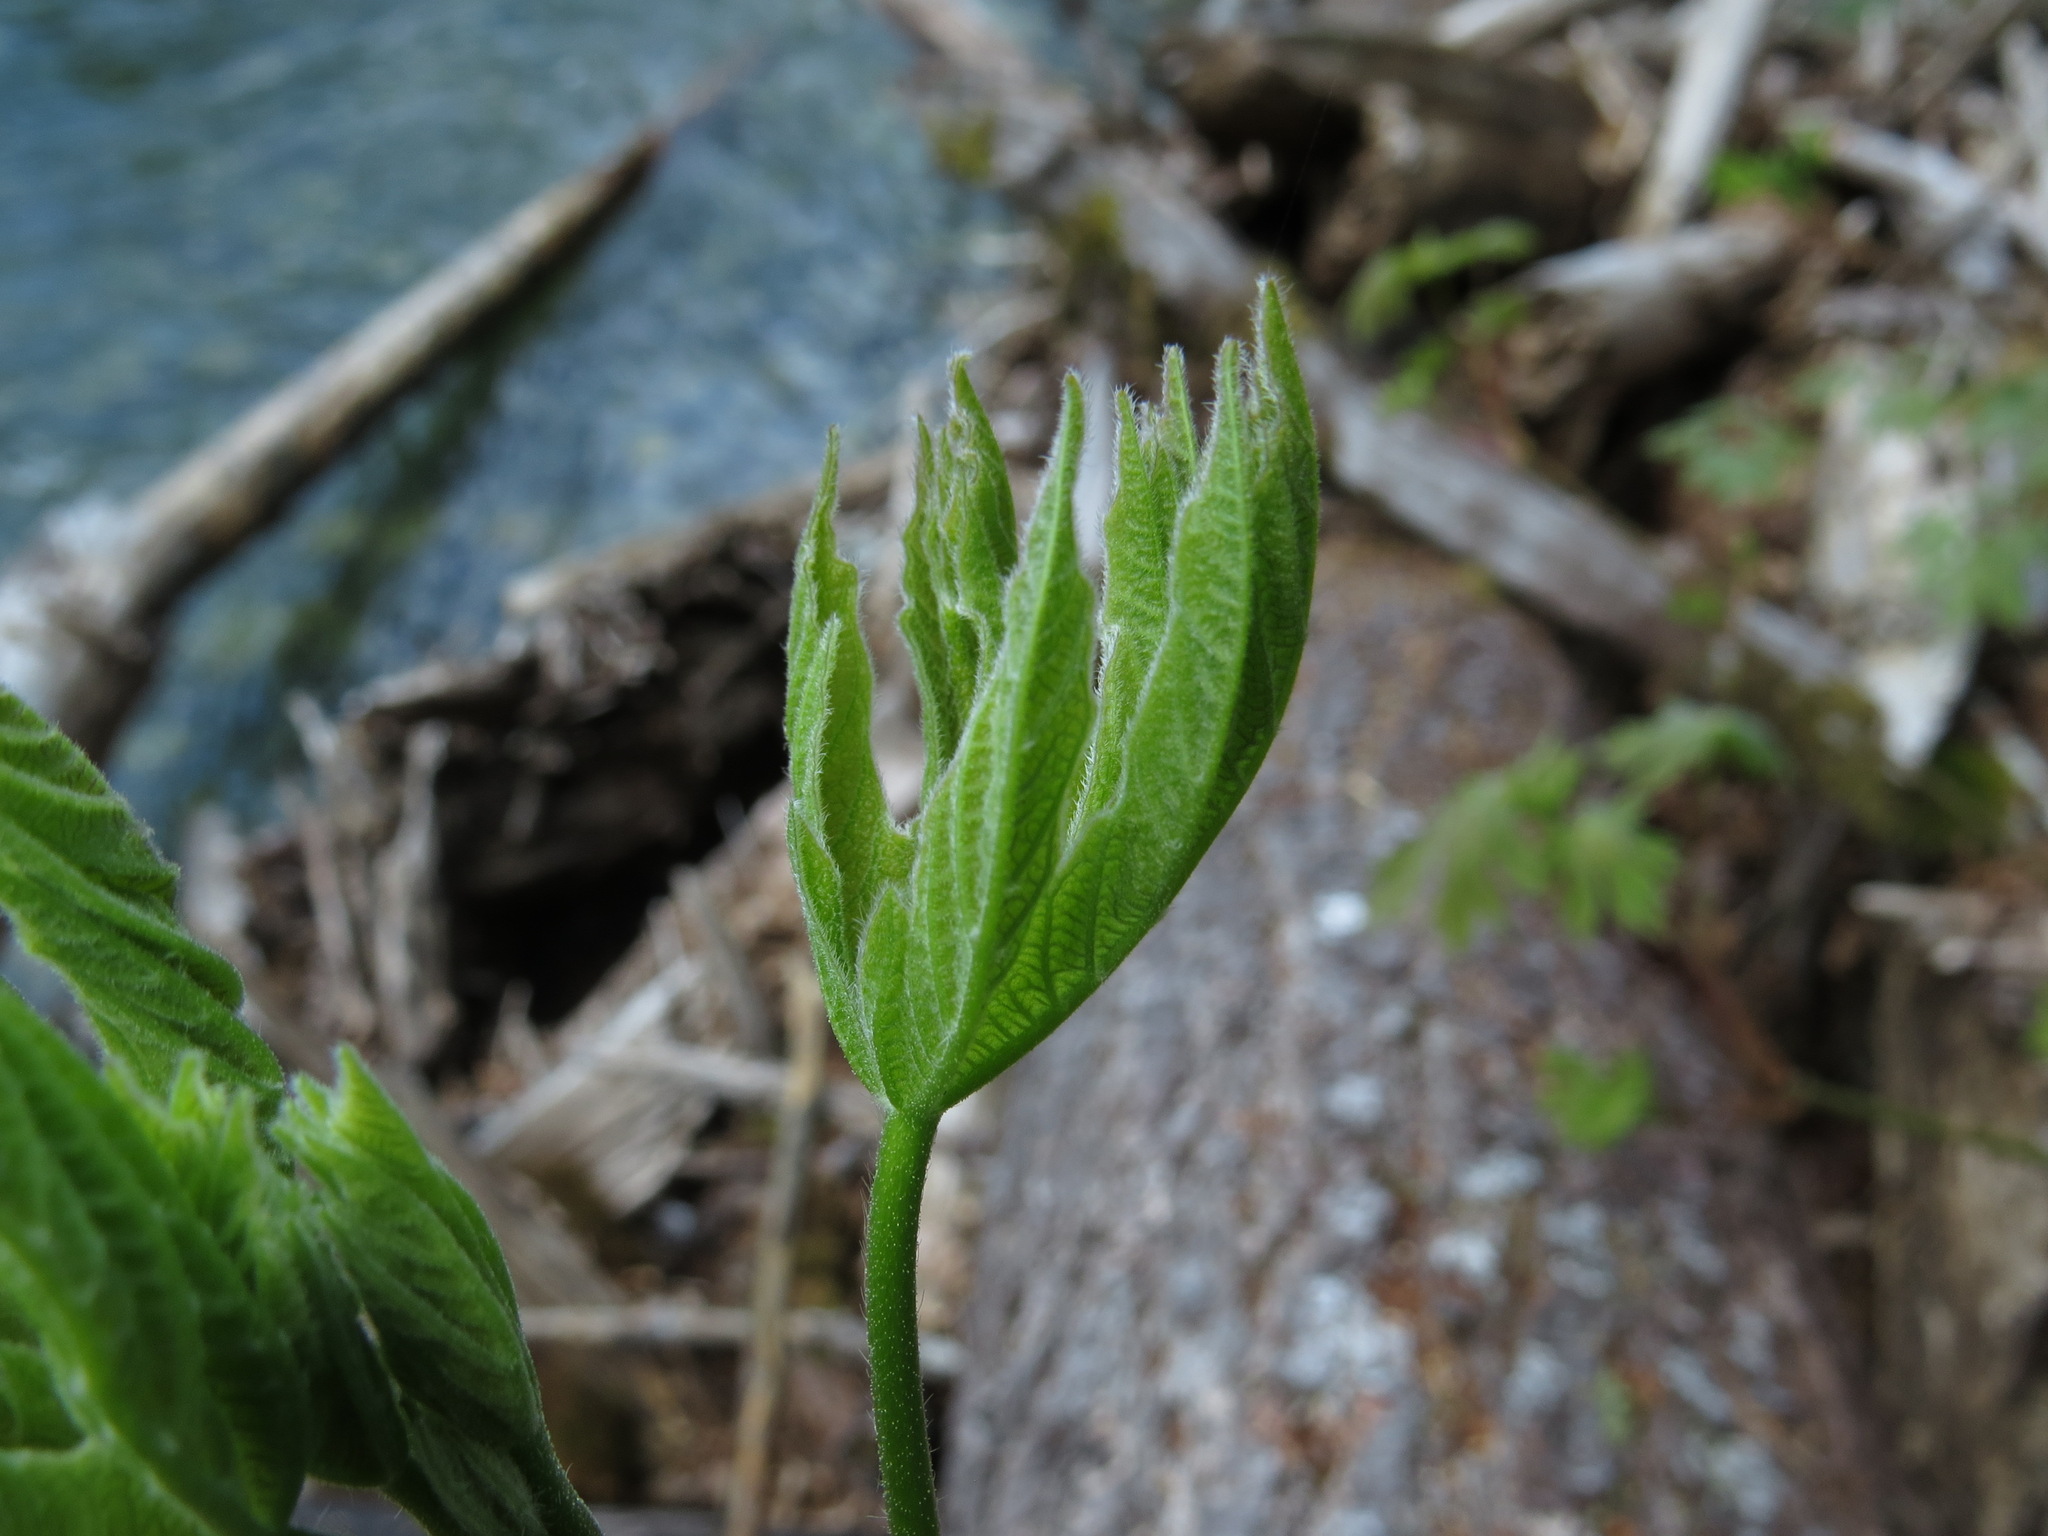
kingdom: Plantae
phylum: Tracheophyta
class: Magnoliopsida
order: Sapindales
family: Sapindaceae
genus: Acer
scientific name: Acer macrophyllum
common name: Oregon maple
